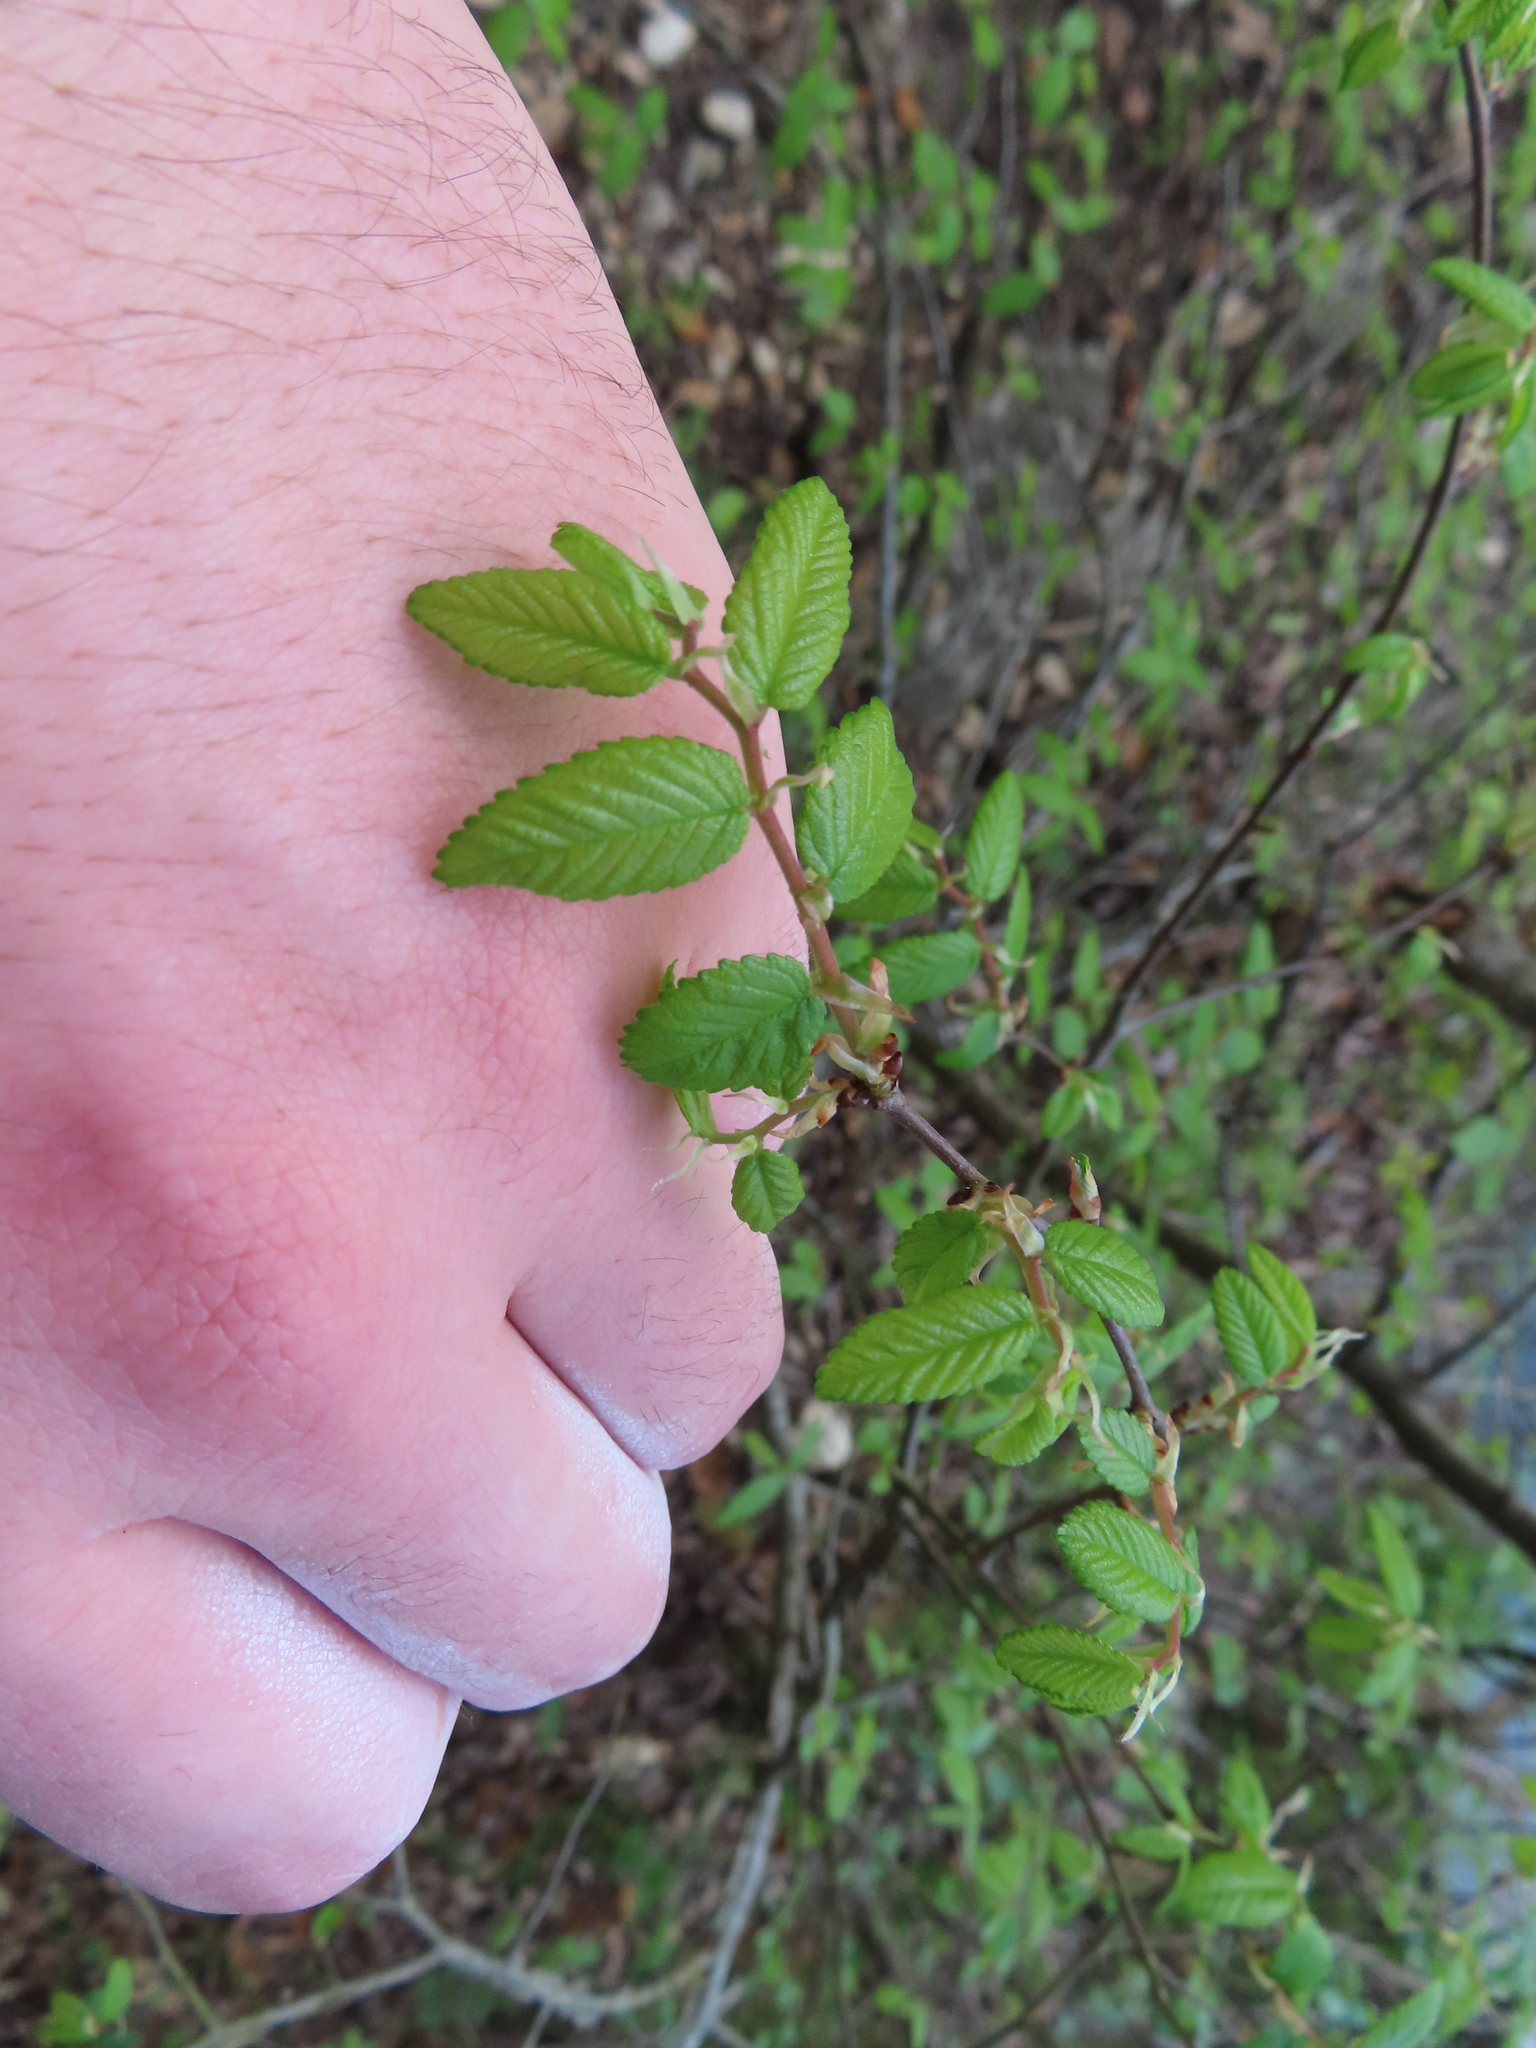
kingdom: Plantae
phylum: Tracheophyta
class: Magnoliopsida
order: Rosales
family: Ulmaceae
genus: Ulmus
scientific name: Ulmus crassifolia
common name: Basket elm
